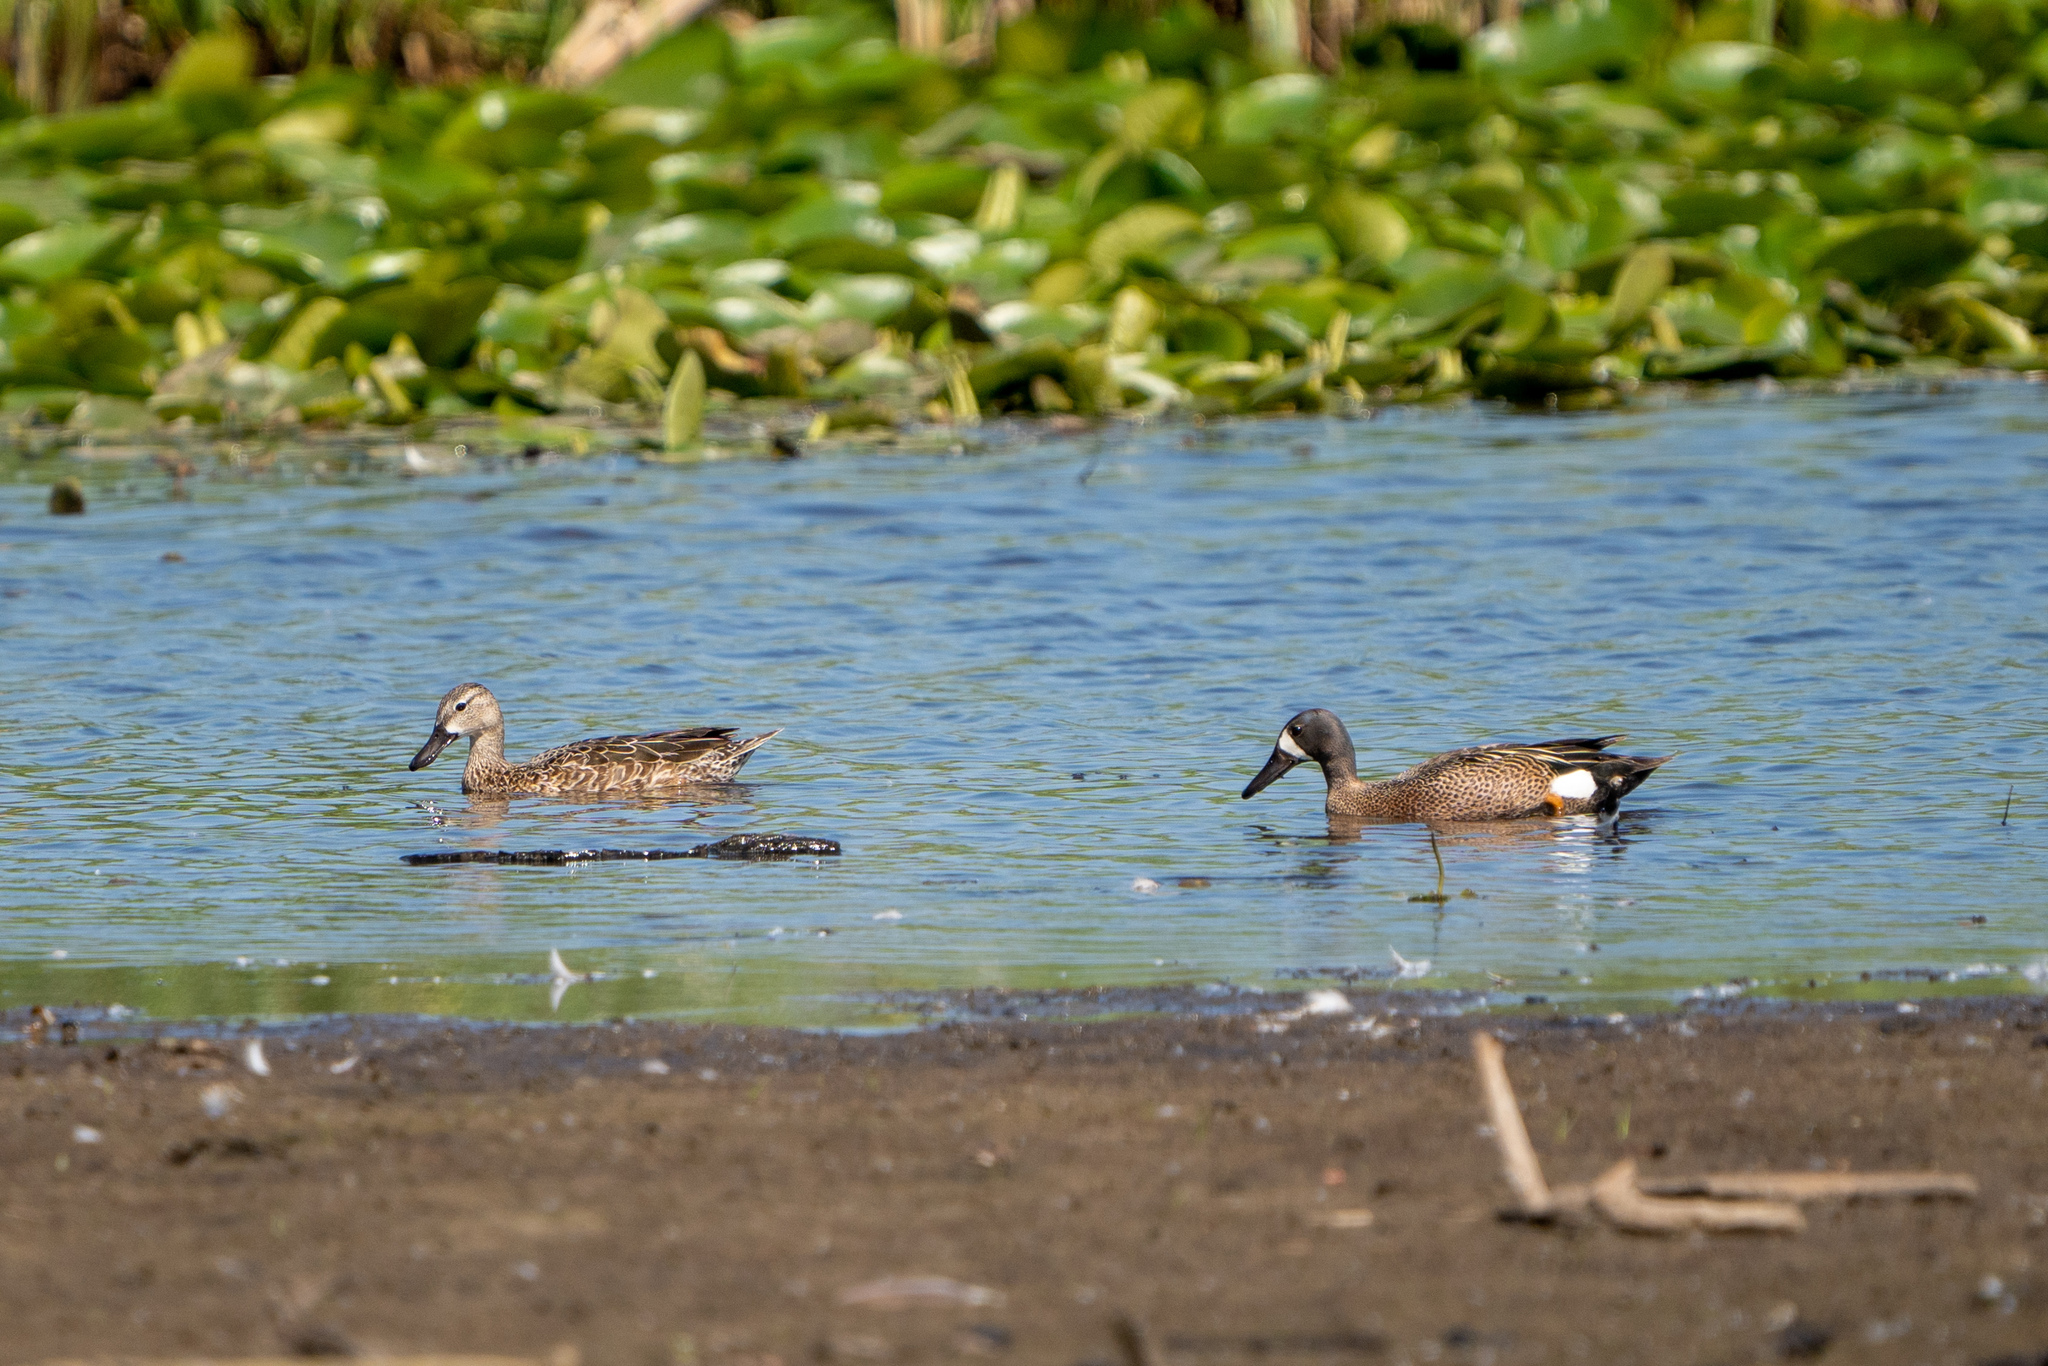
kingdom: Animalia
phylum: Chordata
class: Aves
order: Anseriformes
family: Anatidae
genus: Spatula
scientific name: Spatula discors
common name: Blue-winged teal
